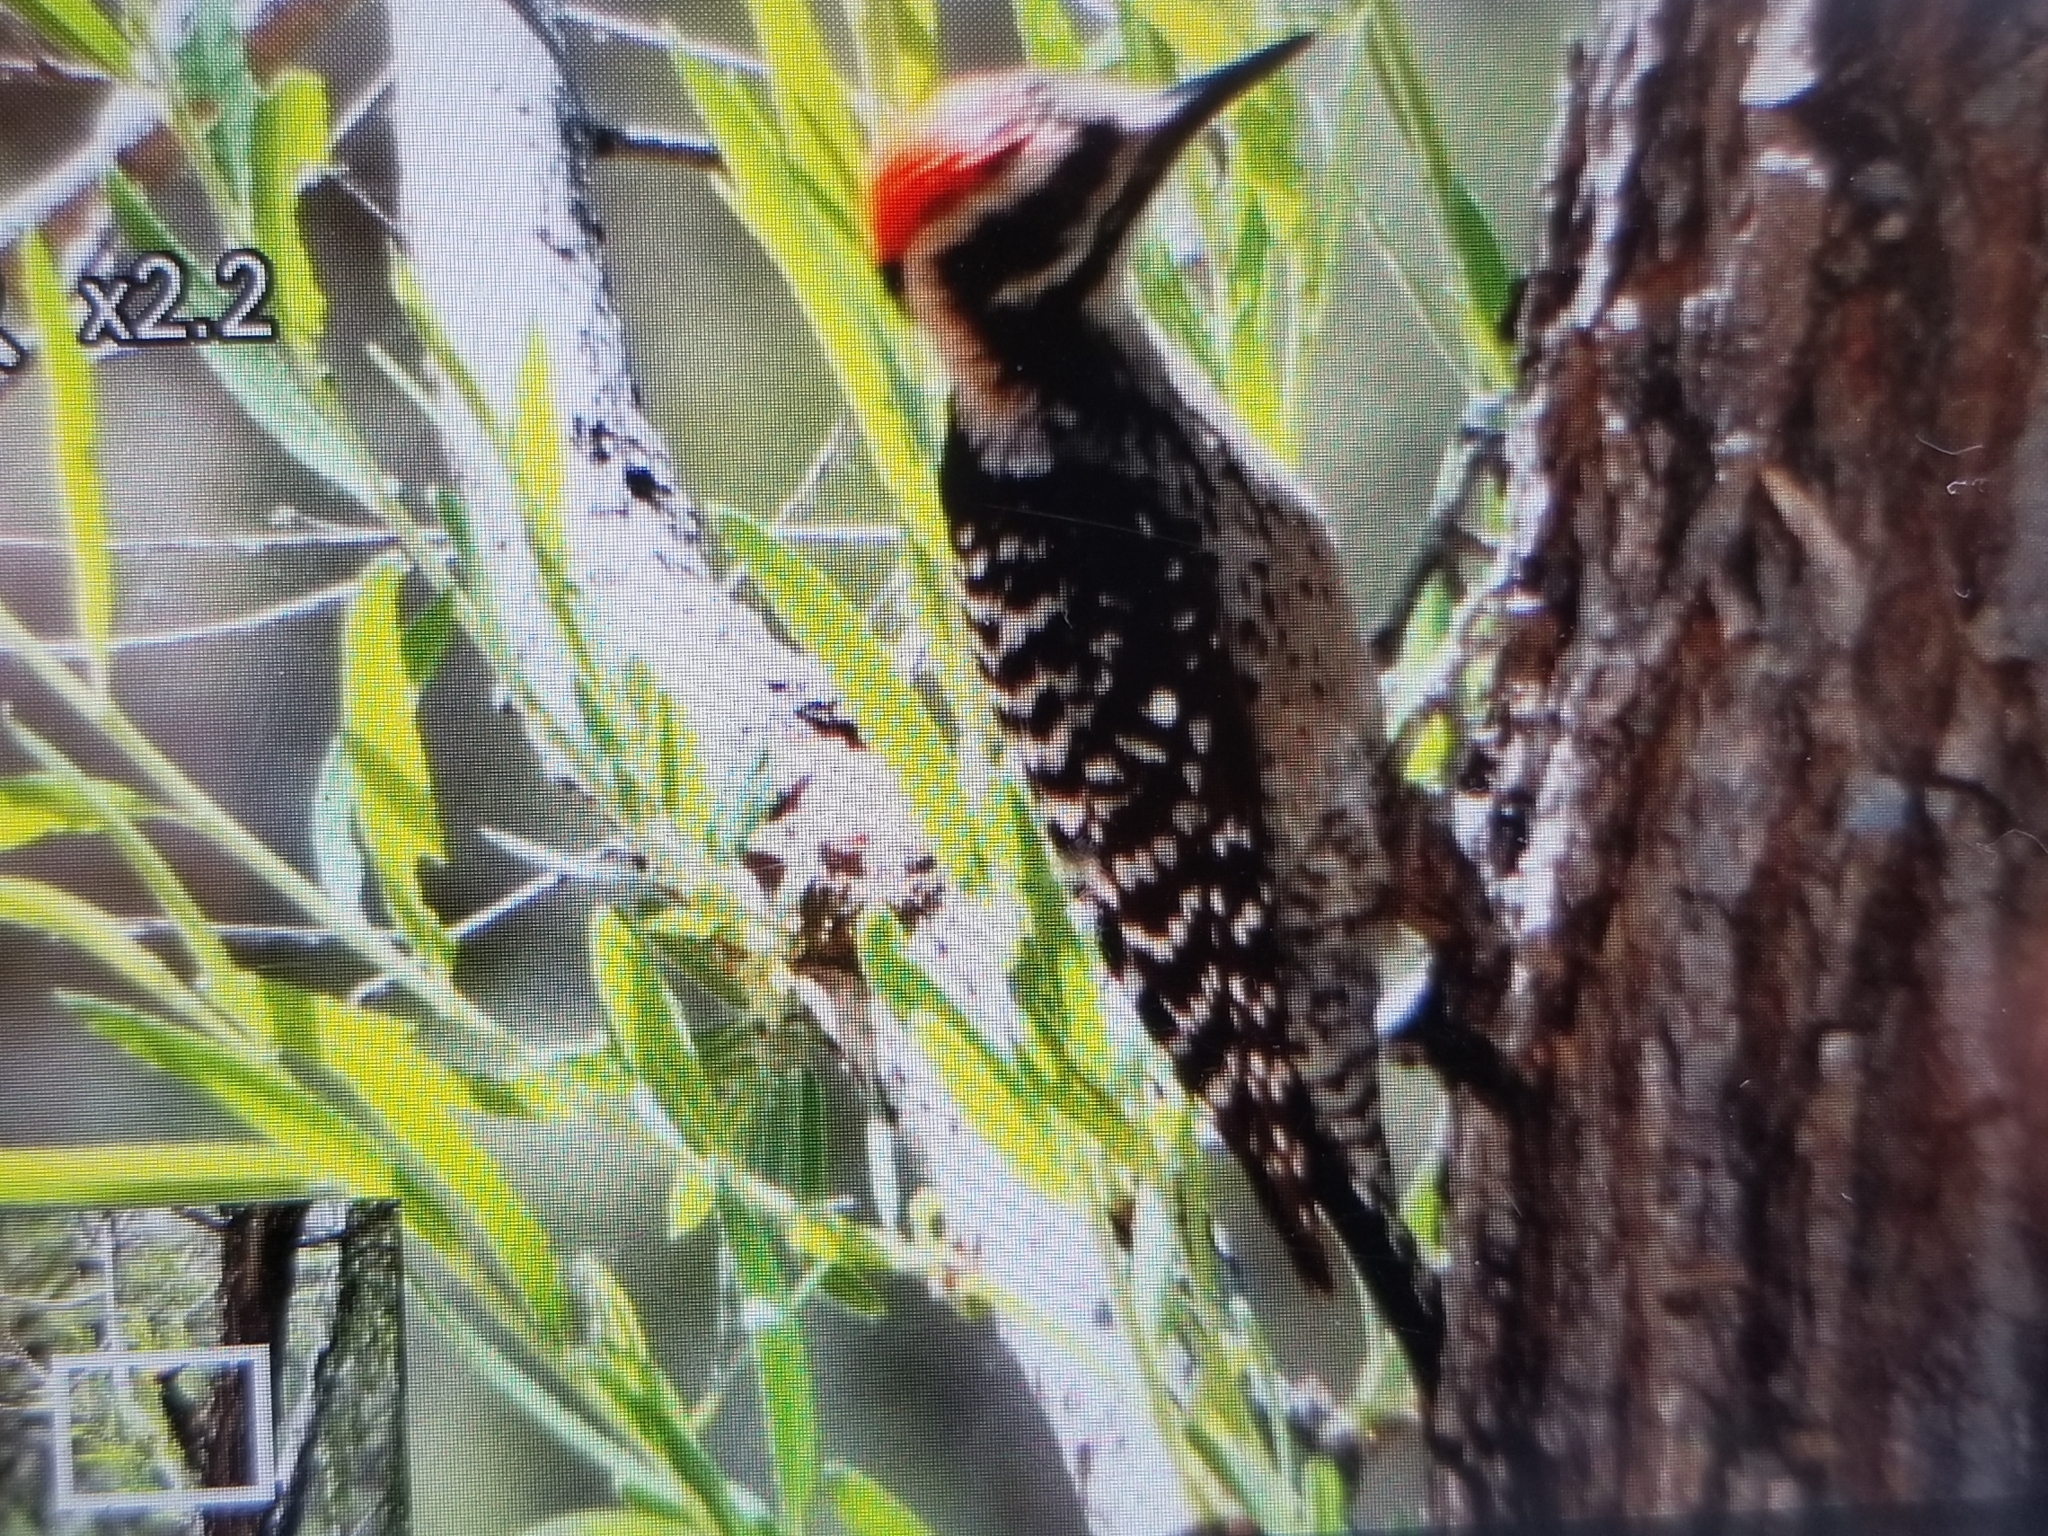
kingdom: Animalia
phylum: Chordata
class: Aves
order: Piciformes
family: Picidae
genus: Dryobates
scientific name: Dryobates scalaris
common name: Ladder-backed woodpecker
